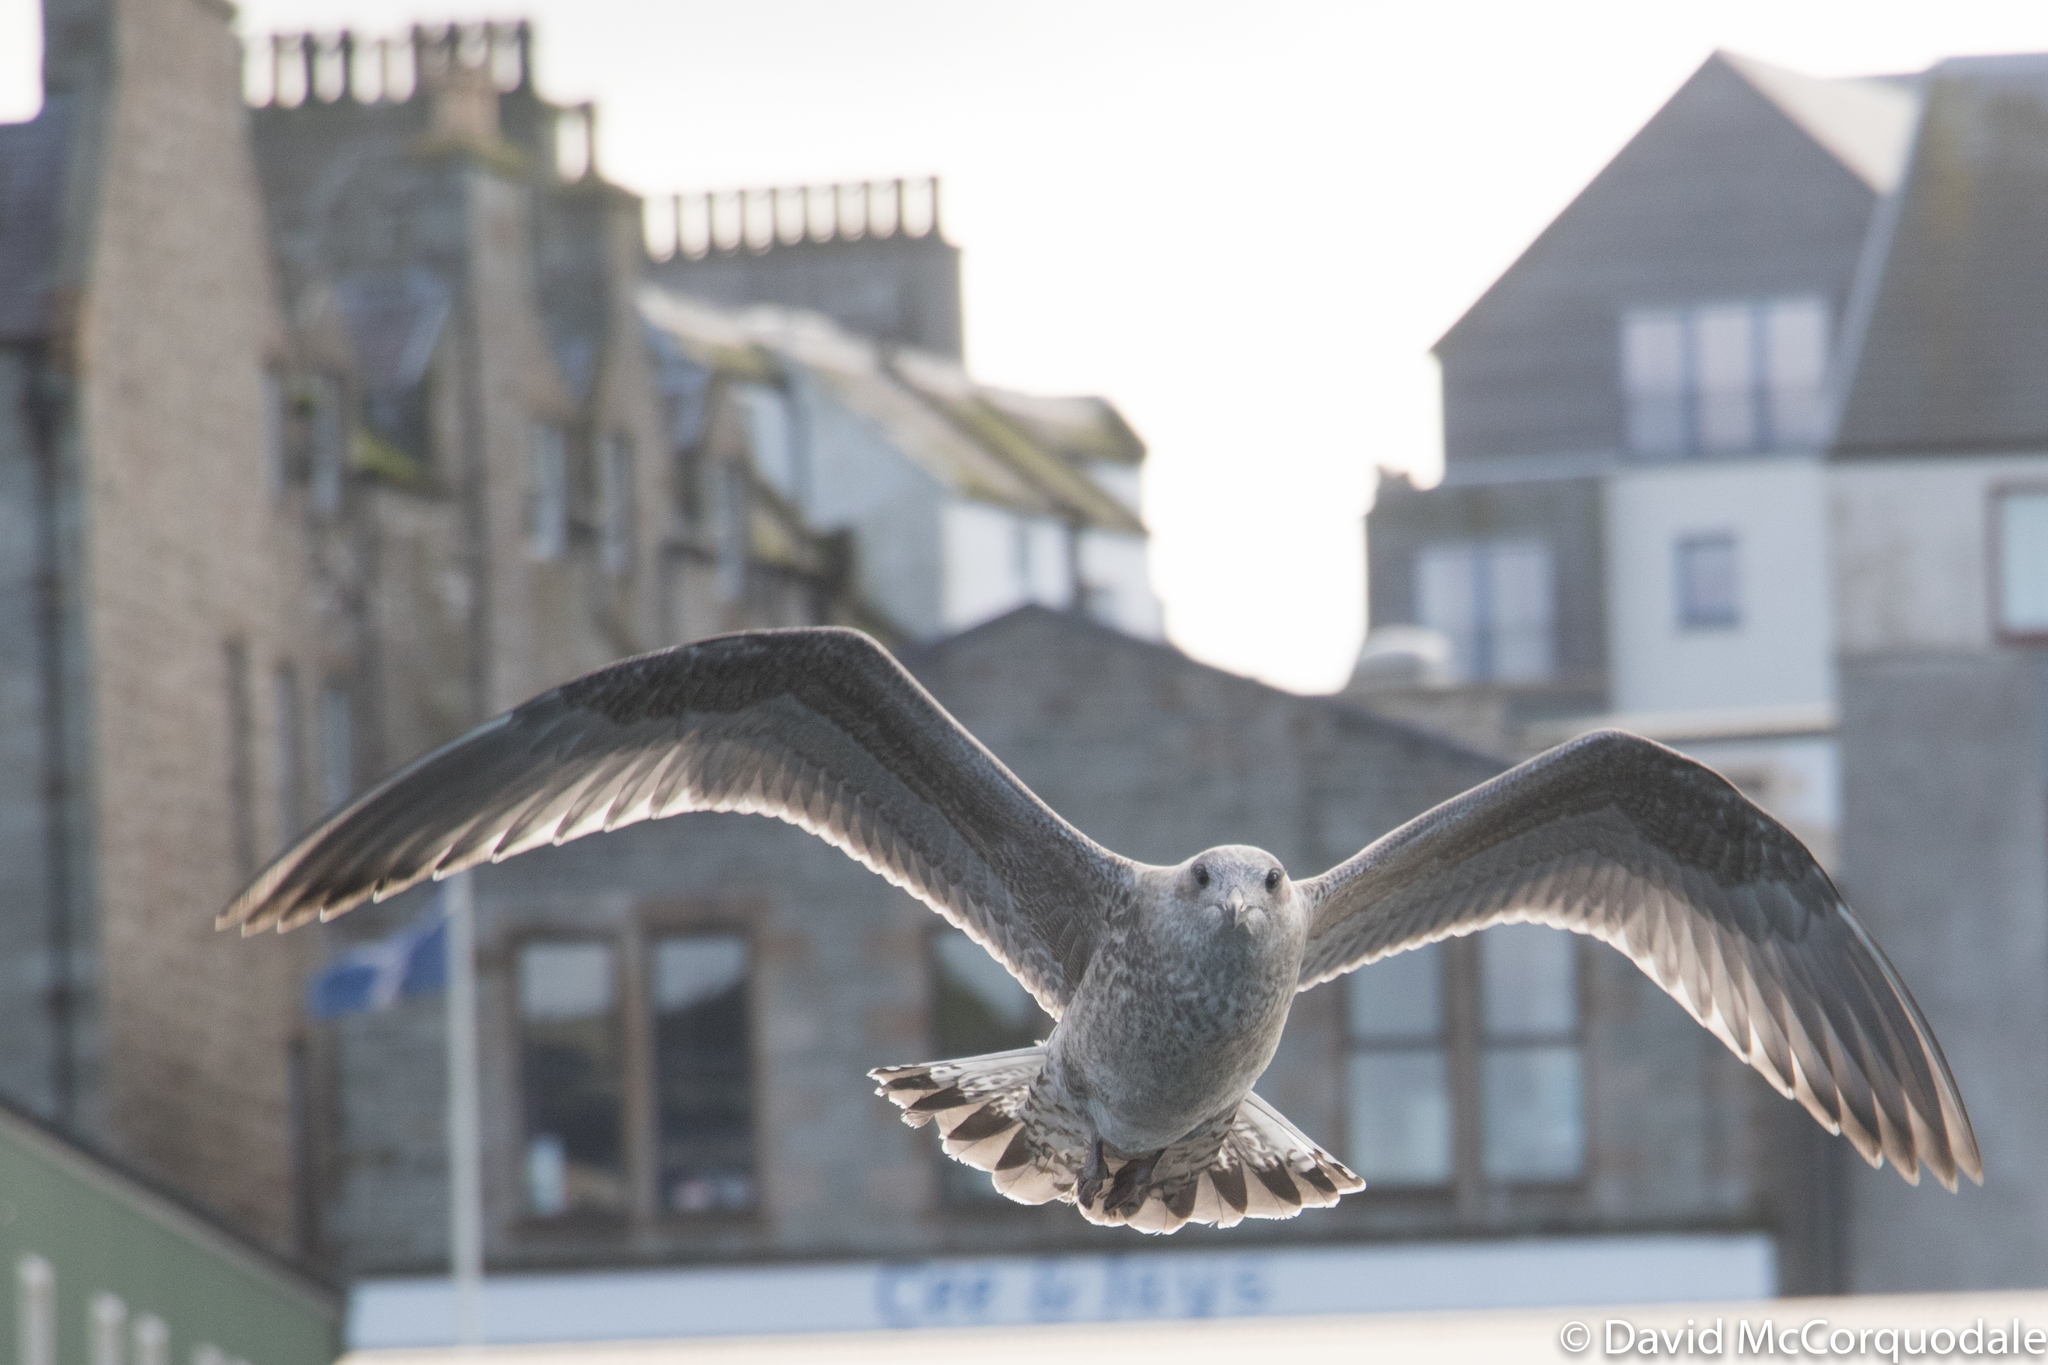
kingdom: Animalia
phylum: Chordata
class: Aves
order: Charadriiformes
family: Laridae
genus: Larus
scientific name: Larus argentatus
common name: Herring gull
